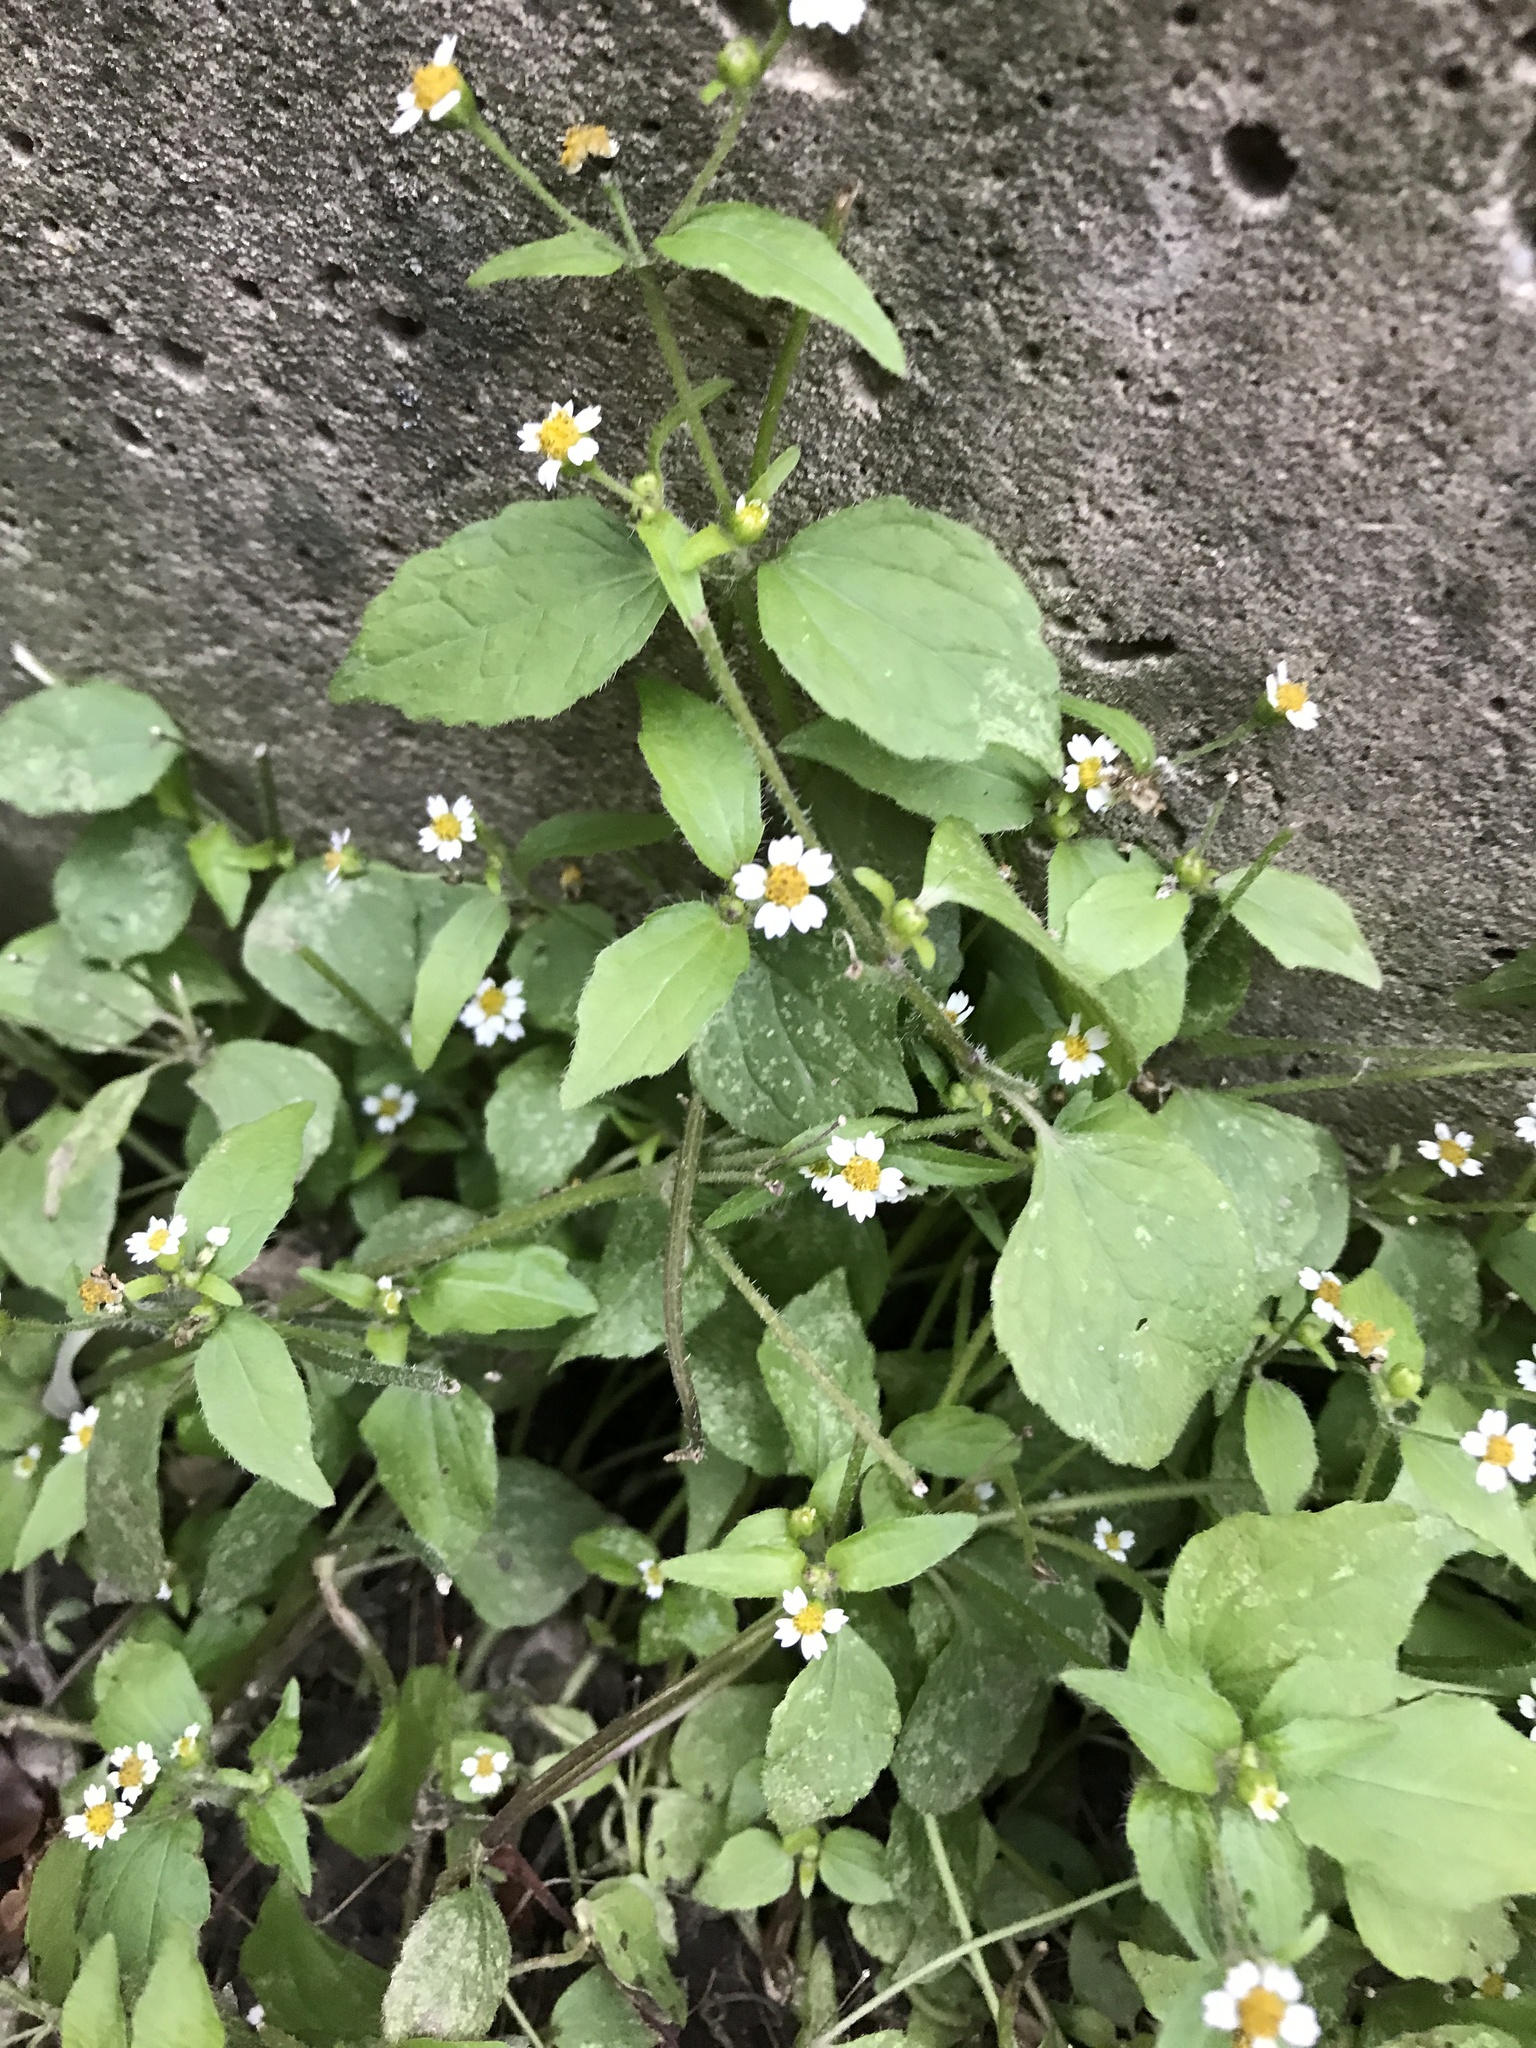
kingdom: Plantae
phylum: Tracheophyta
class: Magnoliopsida
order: Asterales
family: Asteraceae
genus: Galinsoga
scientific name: Galinsoga quadriradiata
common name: Shaggy soldier
